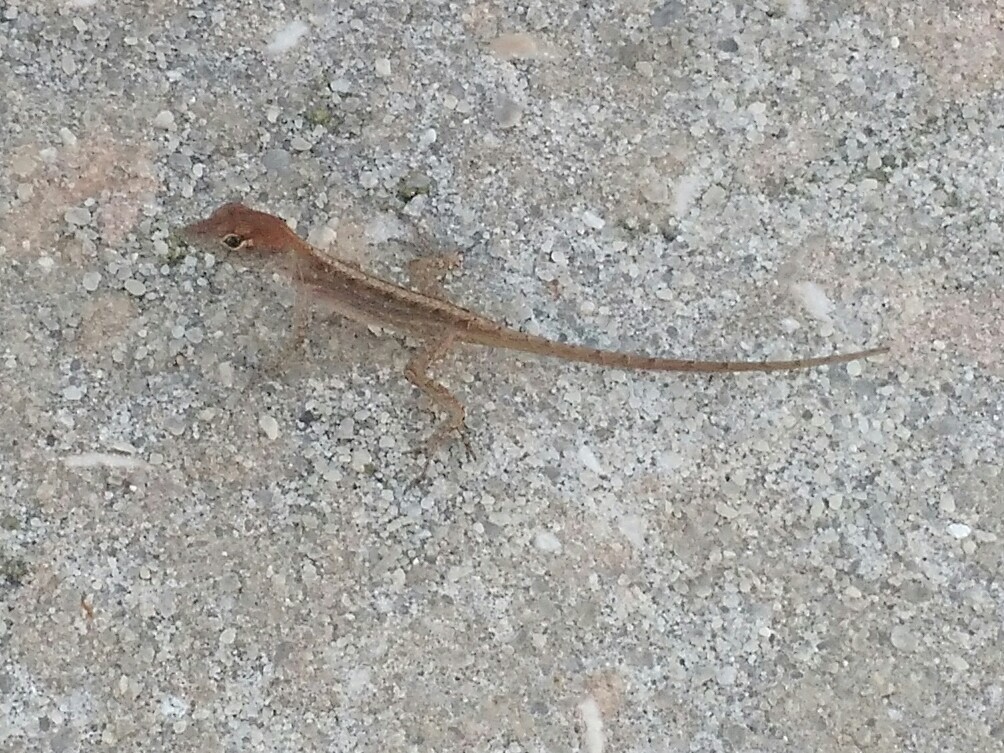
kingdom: Animalia
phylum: Chordata
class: Squamata
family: Dactyloidae
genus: Anolis
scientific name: Anolis sagrei
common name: Brown anole
